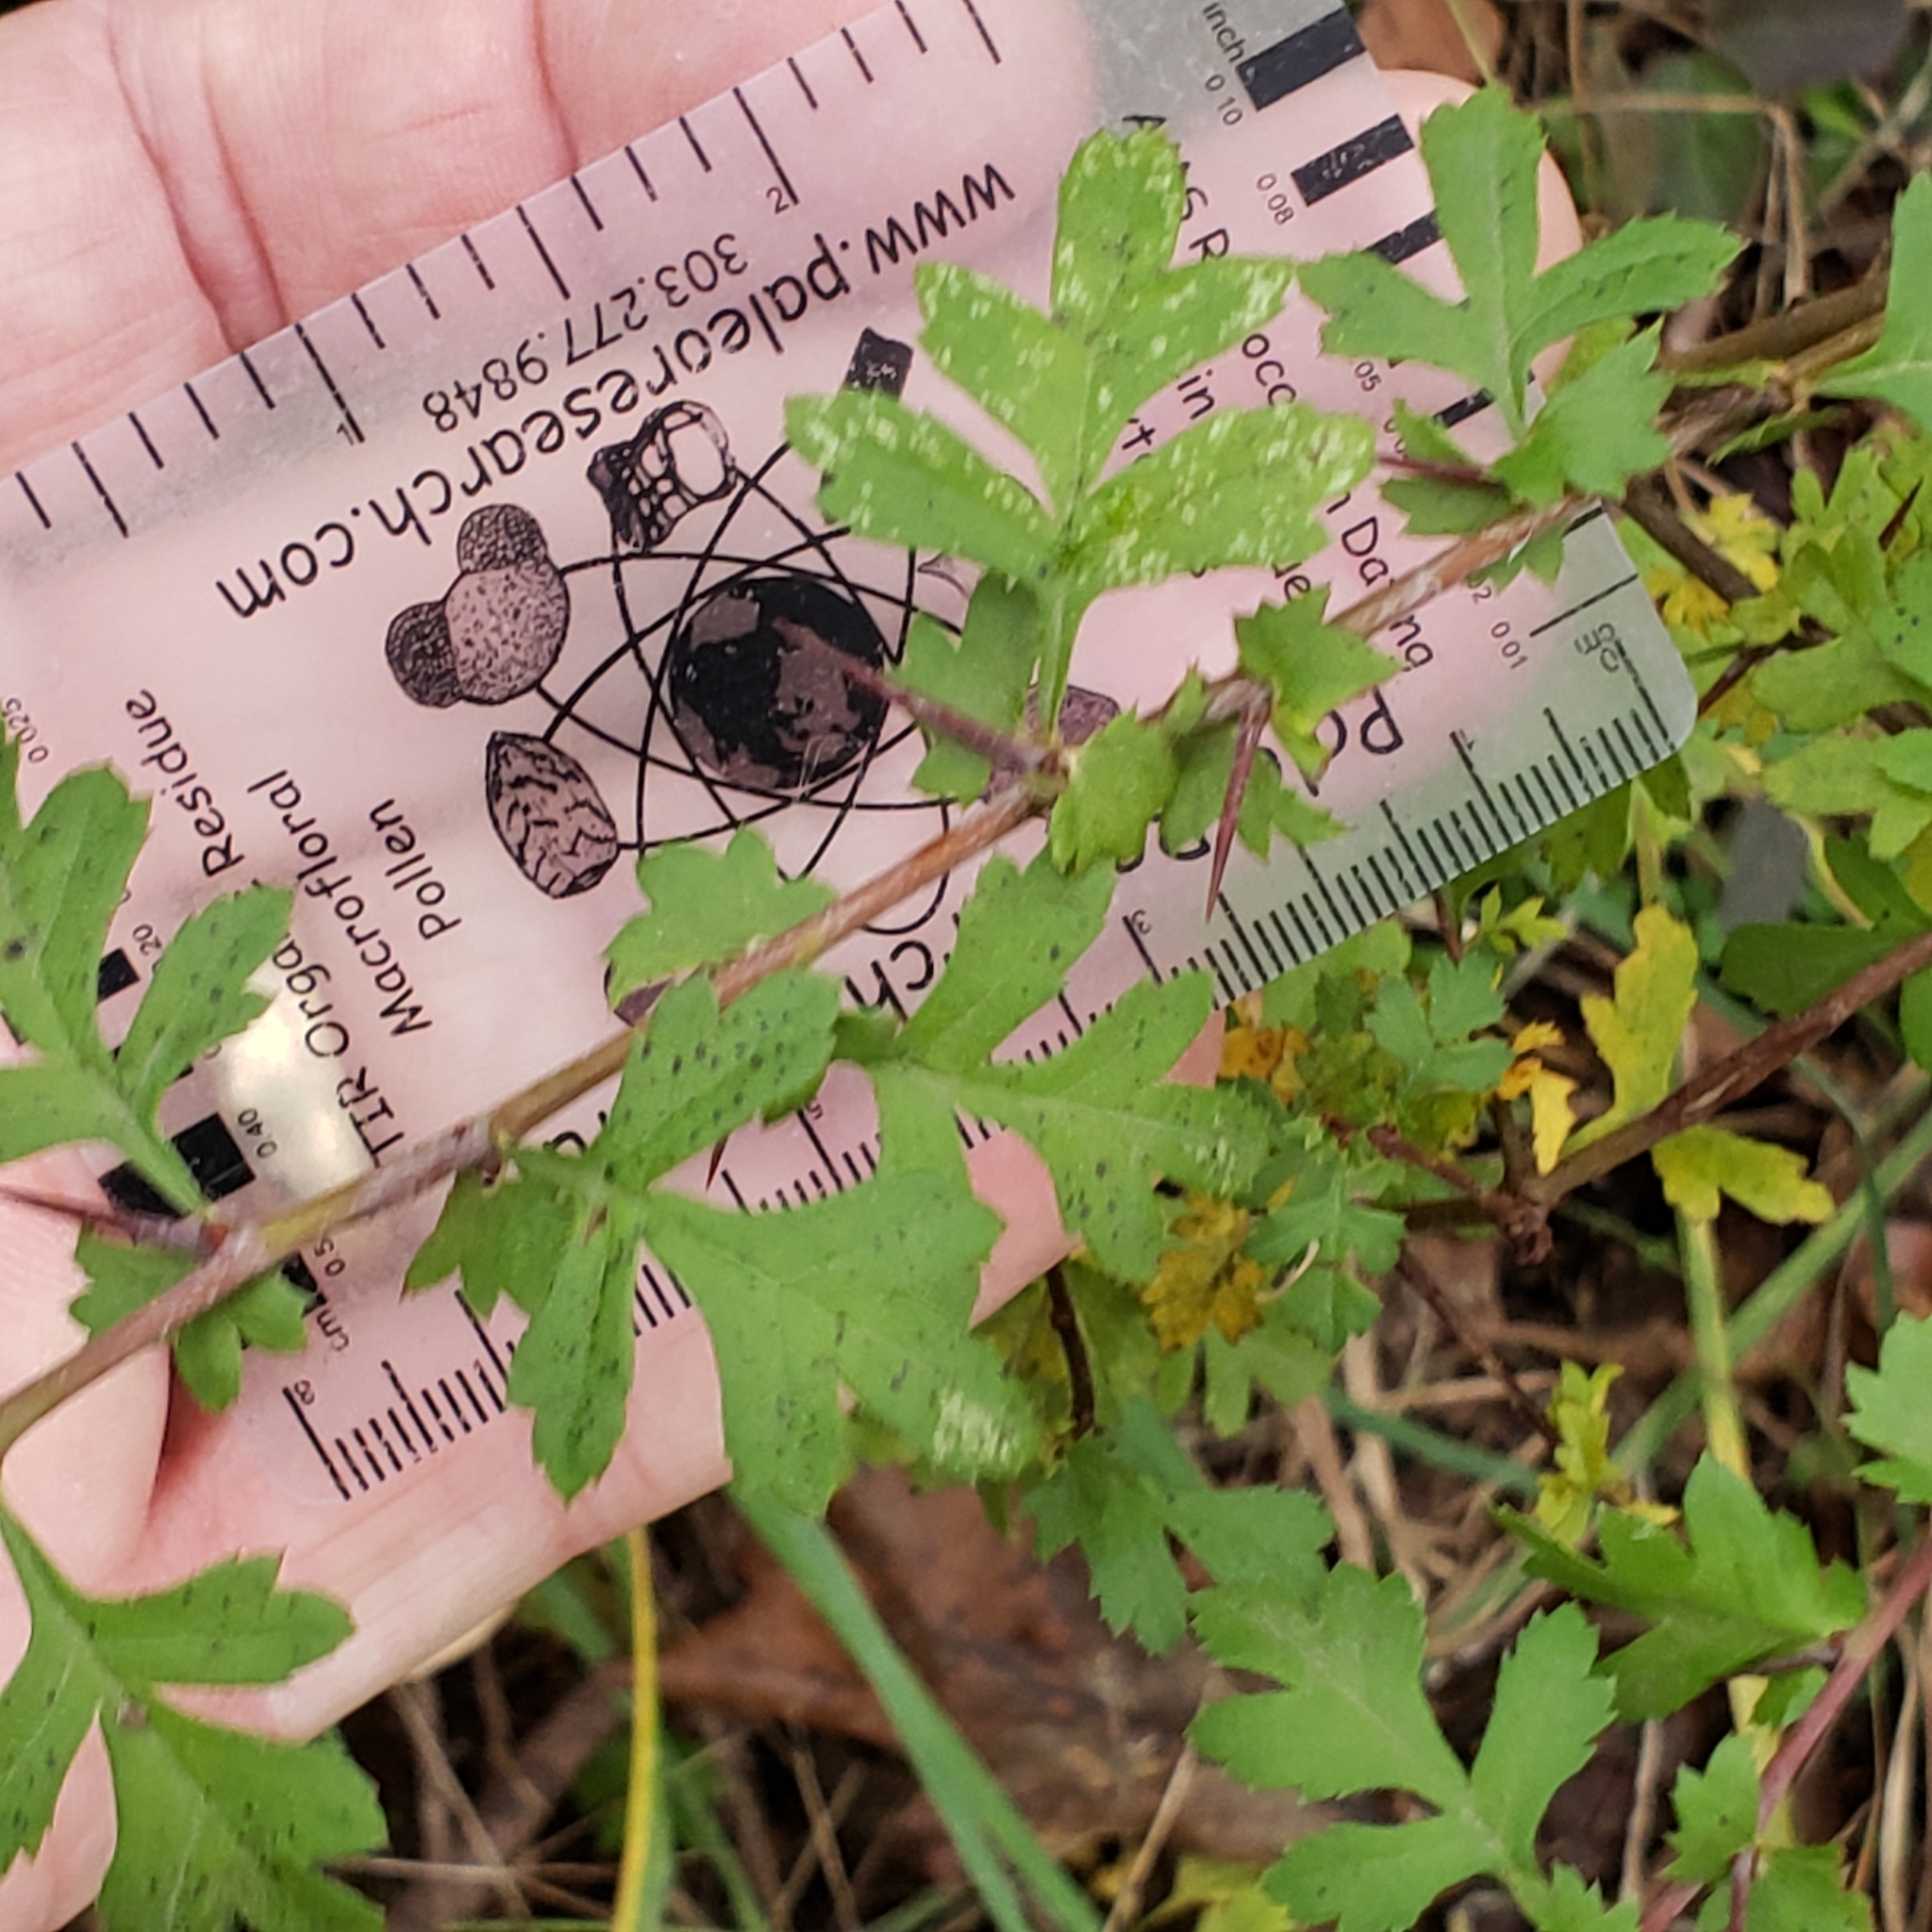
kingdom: Plantae
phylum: Tracheophyta
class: Magnoliopsida
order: Rosales
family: Rosaceae
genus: Crataegus
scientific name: Crataegus monogyna
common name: Hawthorn
